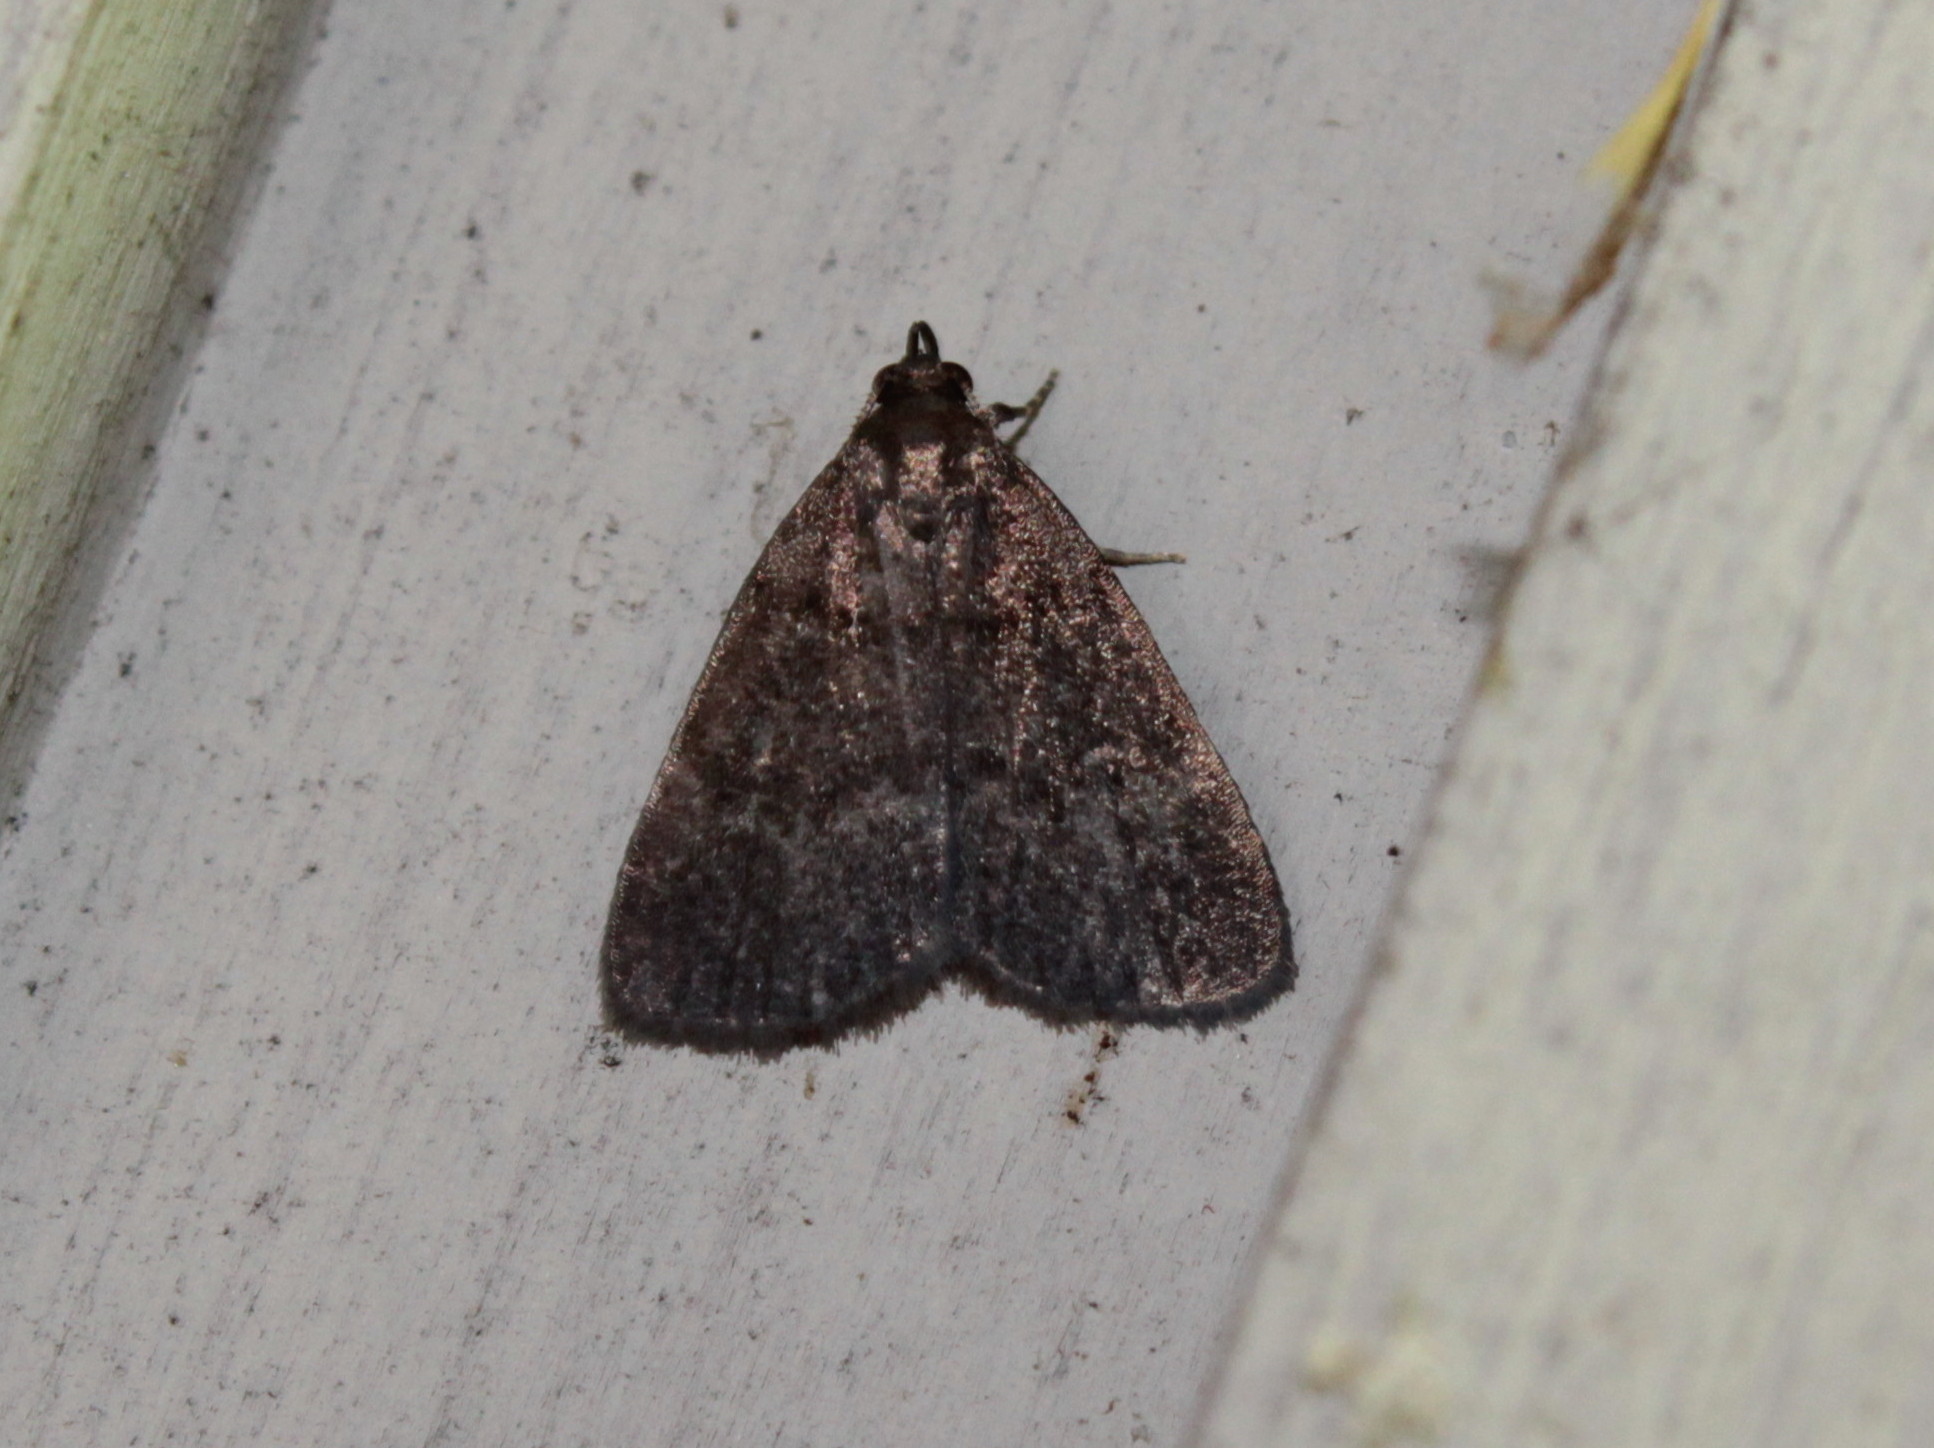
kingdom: Animalia
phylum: Arthropoda
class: Insecta
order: Lepidoptera
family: Erebidae
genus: Idia
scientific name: Idia rotundalis
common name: Rotund idia moth
